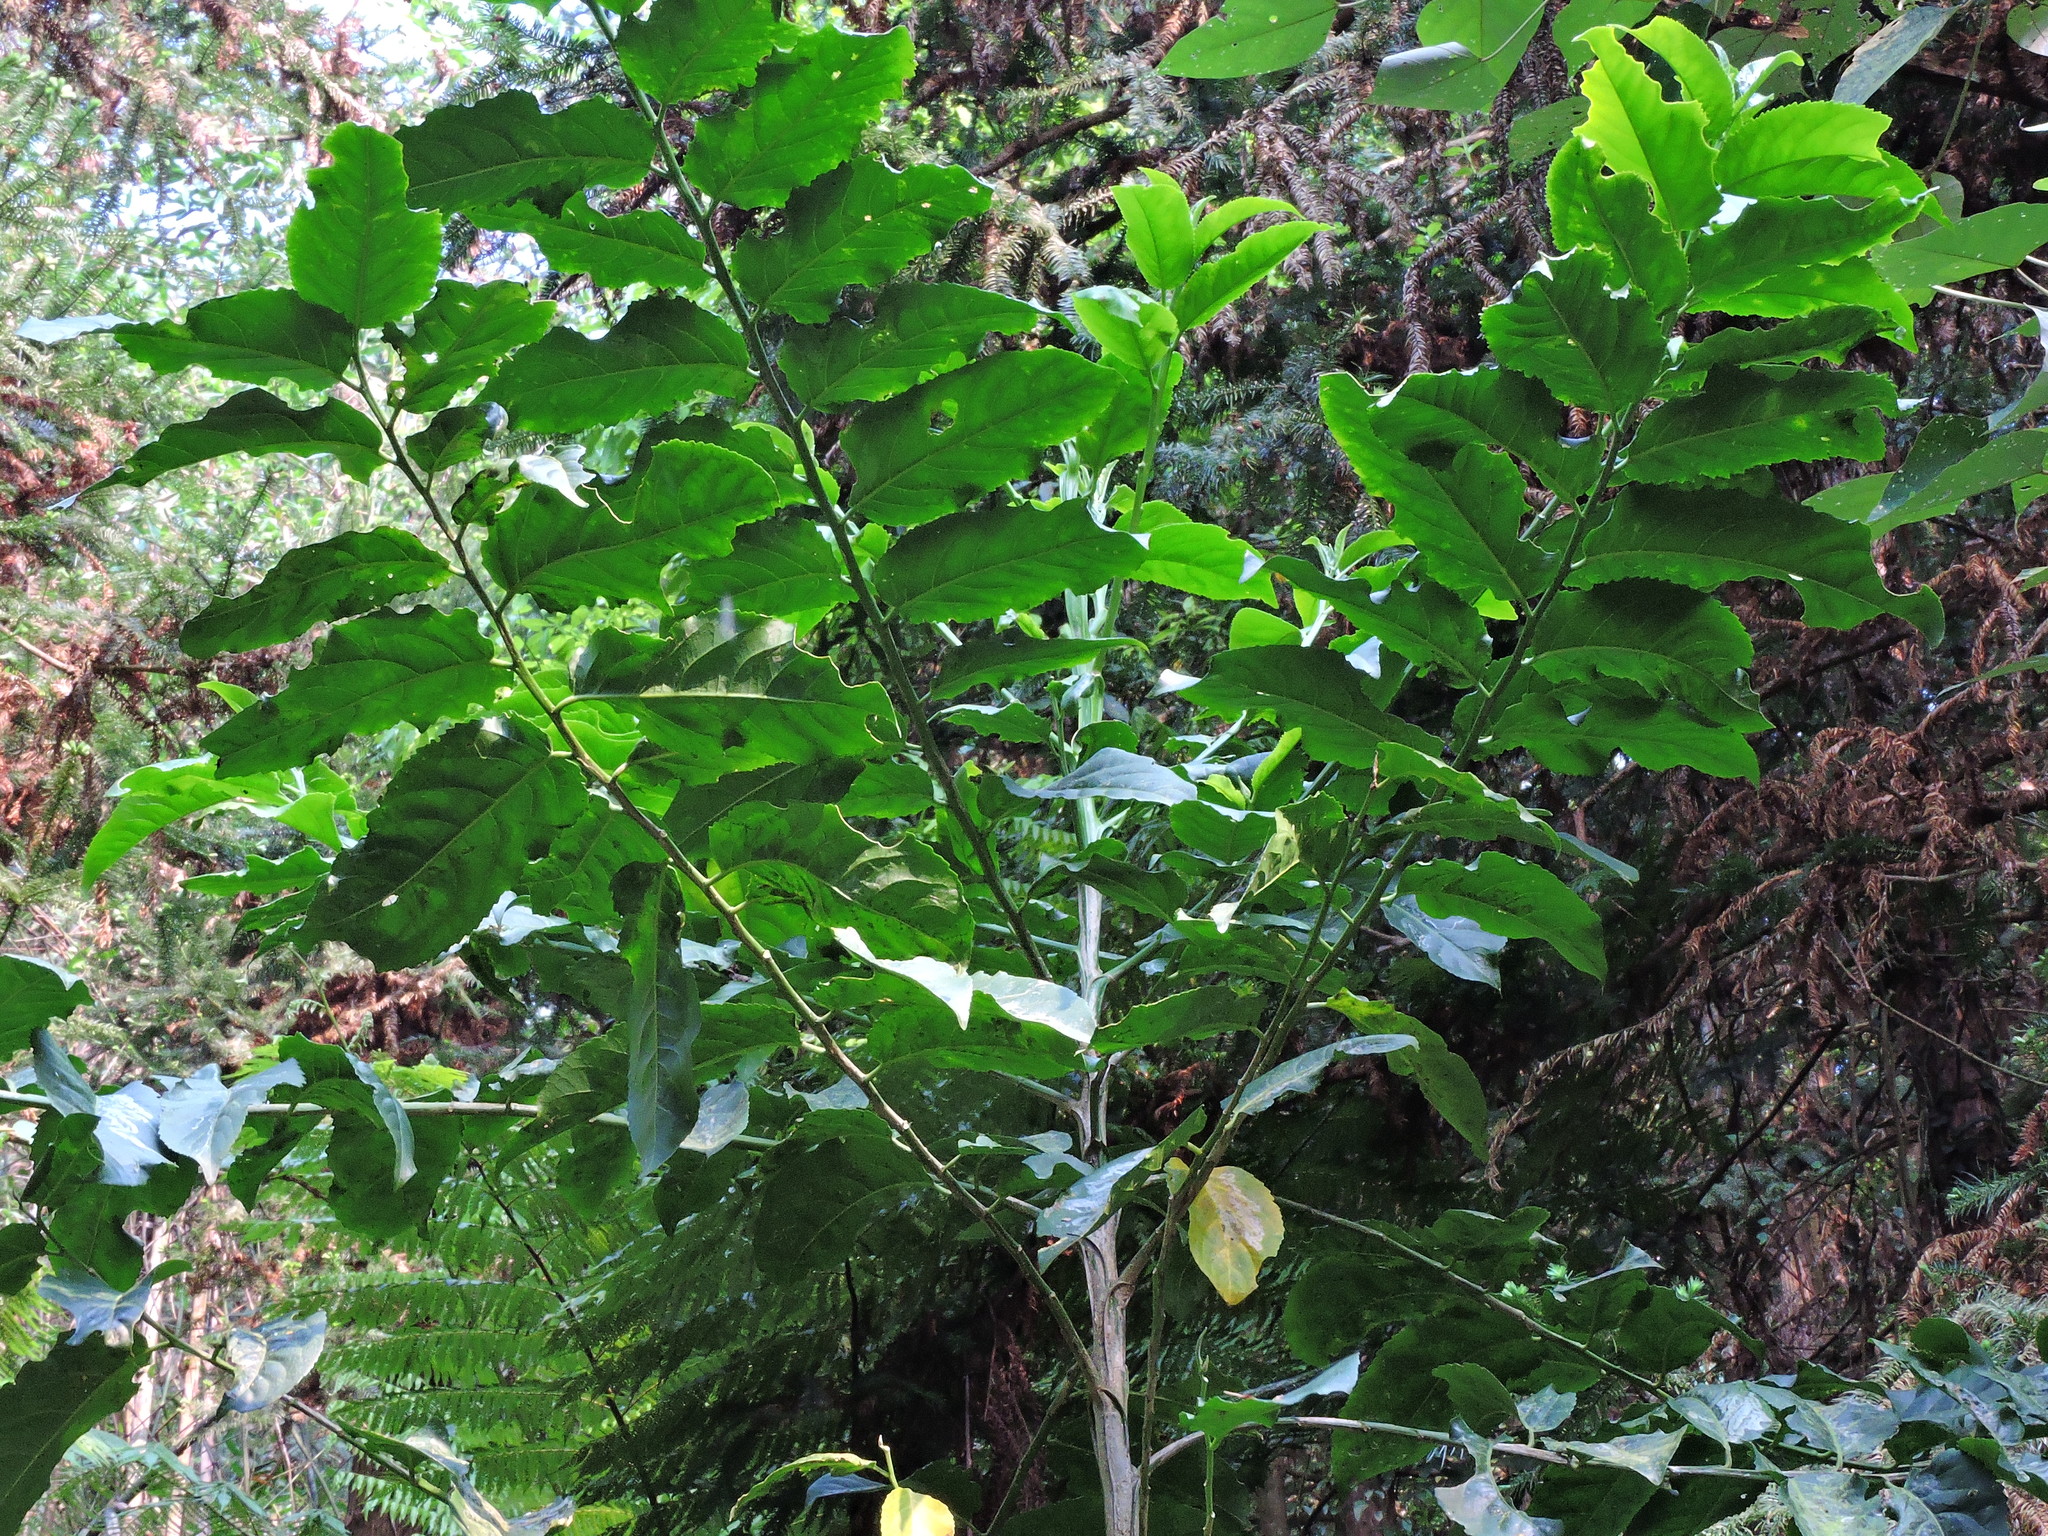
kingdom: Plantae
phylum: Tracheophyta
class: Magnoliopsida
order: Malpighiales
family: Salicaceae
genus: Casearia
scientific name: Casearia glomerata
